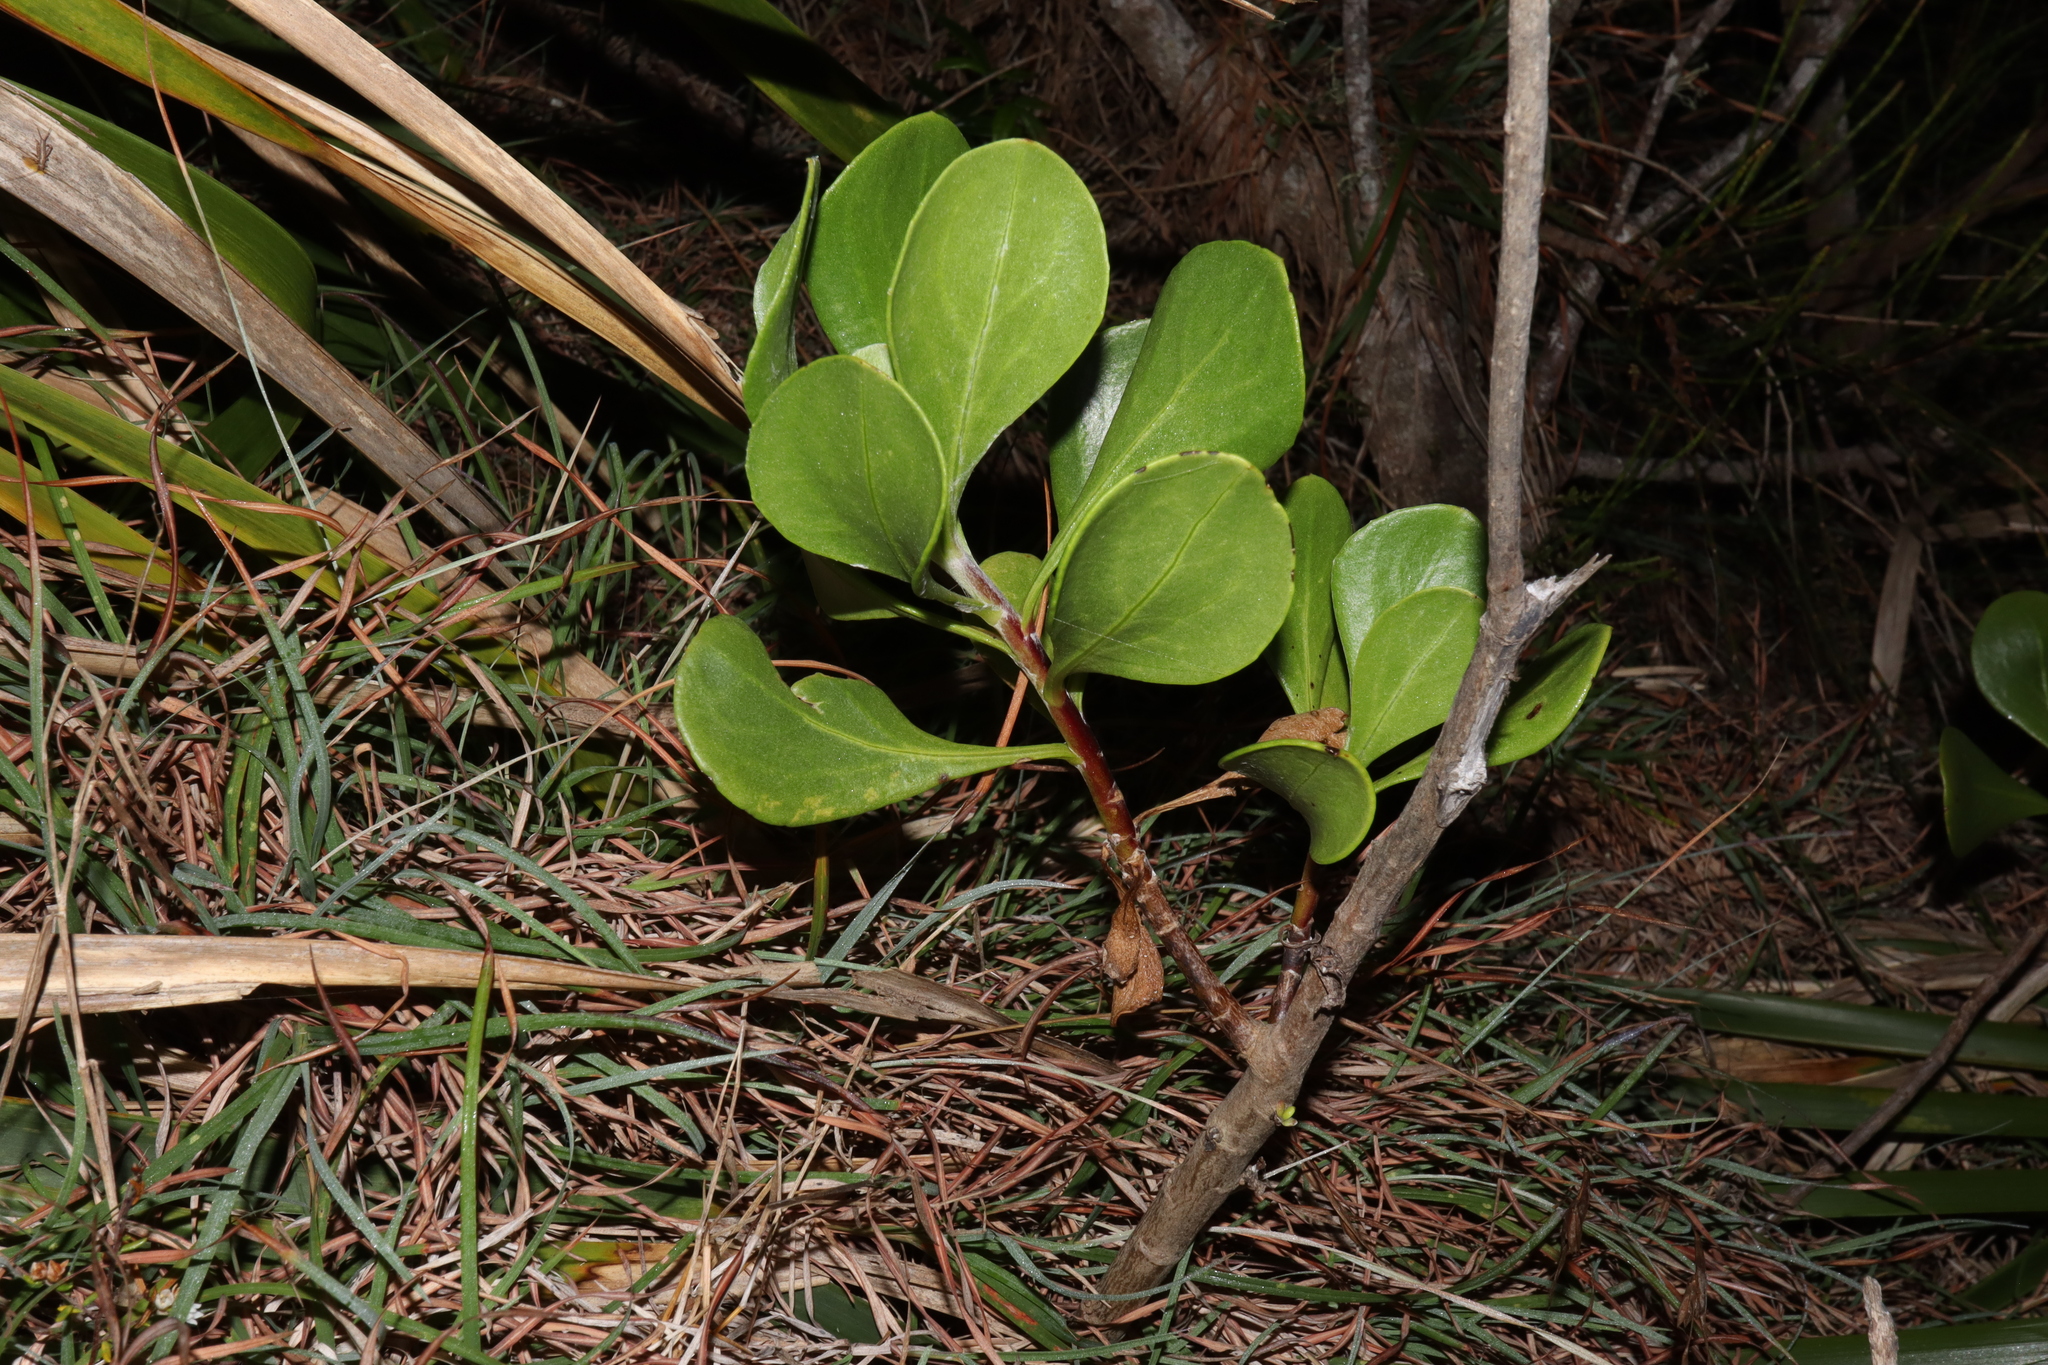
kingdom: Plantae
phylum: Tracheophyta
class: Magnoliopsida
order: Asterales
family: Asteraceae
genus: Osteospermum
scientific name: Osteospermum moniliferum
